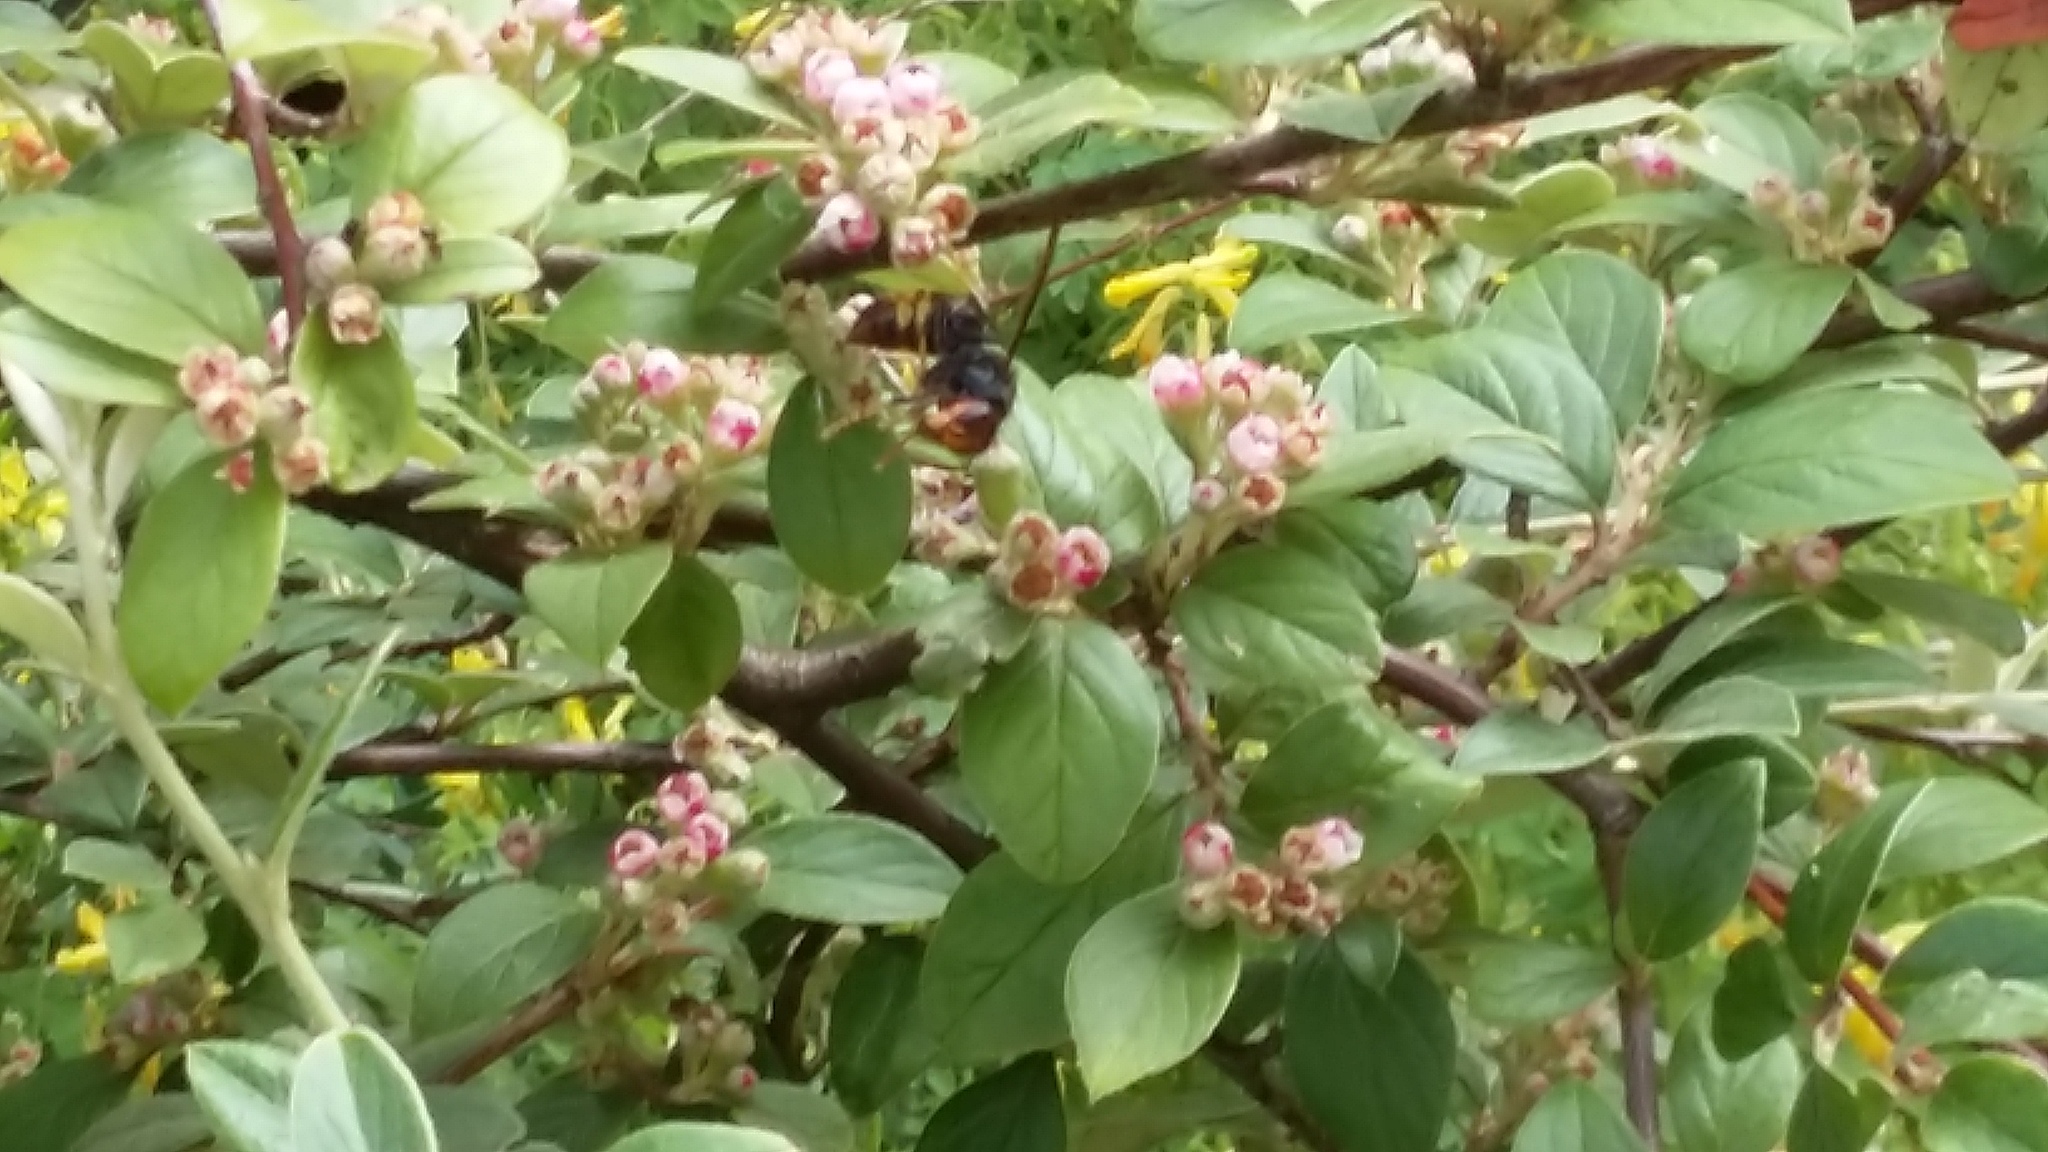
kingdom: Animalia
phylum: Arthropoda
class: Insecta
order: Hymenoptera
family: Vespidae
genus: Vespa
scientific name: Vespa velutina
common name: Asian hornet
